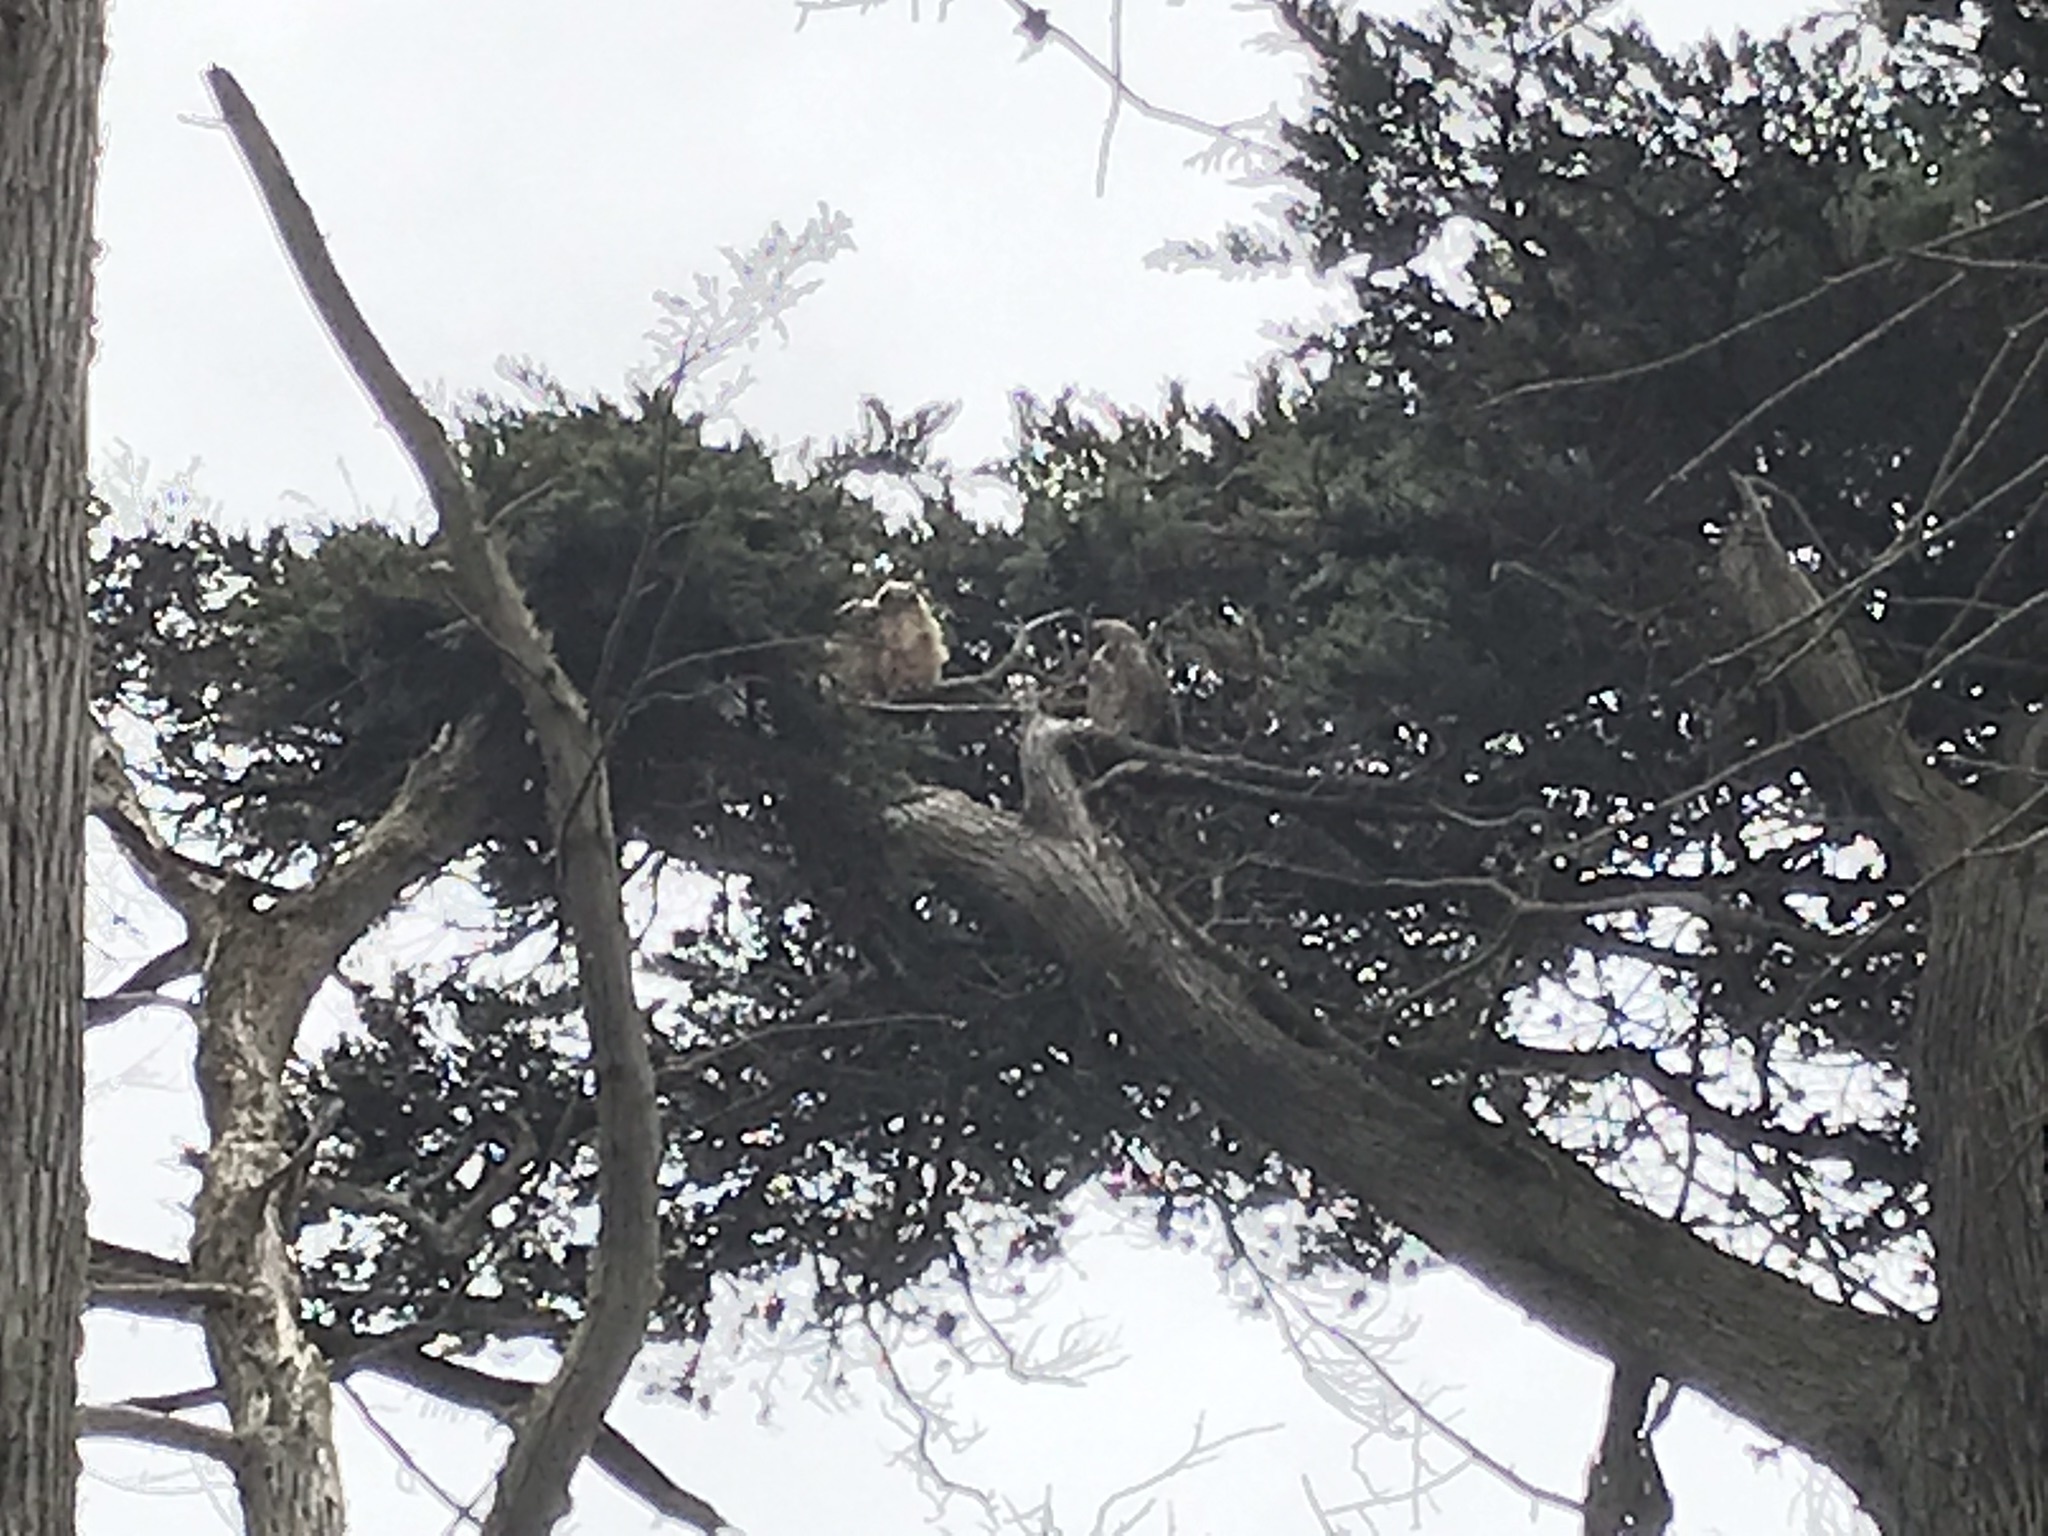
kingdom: Animalia
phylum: Chordata
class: Aves
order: Strigiformes
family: Strigidae
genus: Bubo
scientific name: Bubo virginianus
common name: Great horned owl
